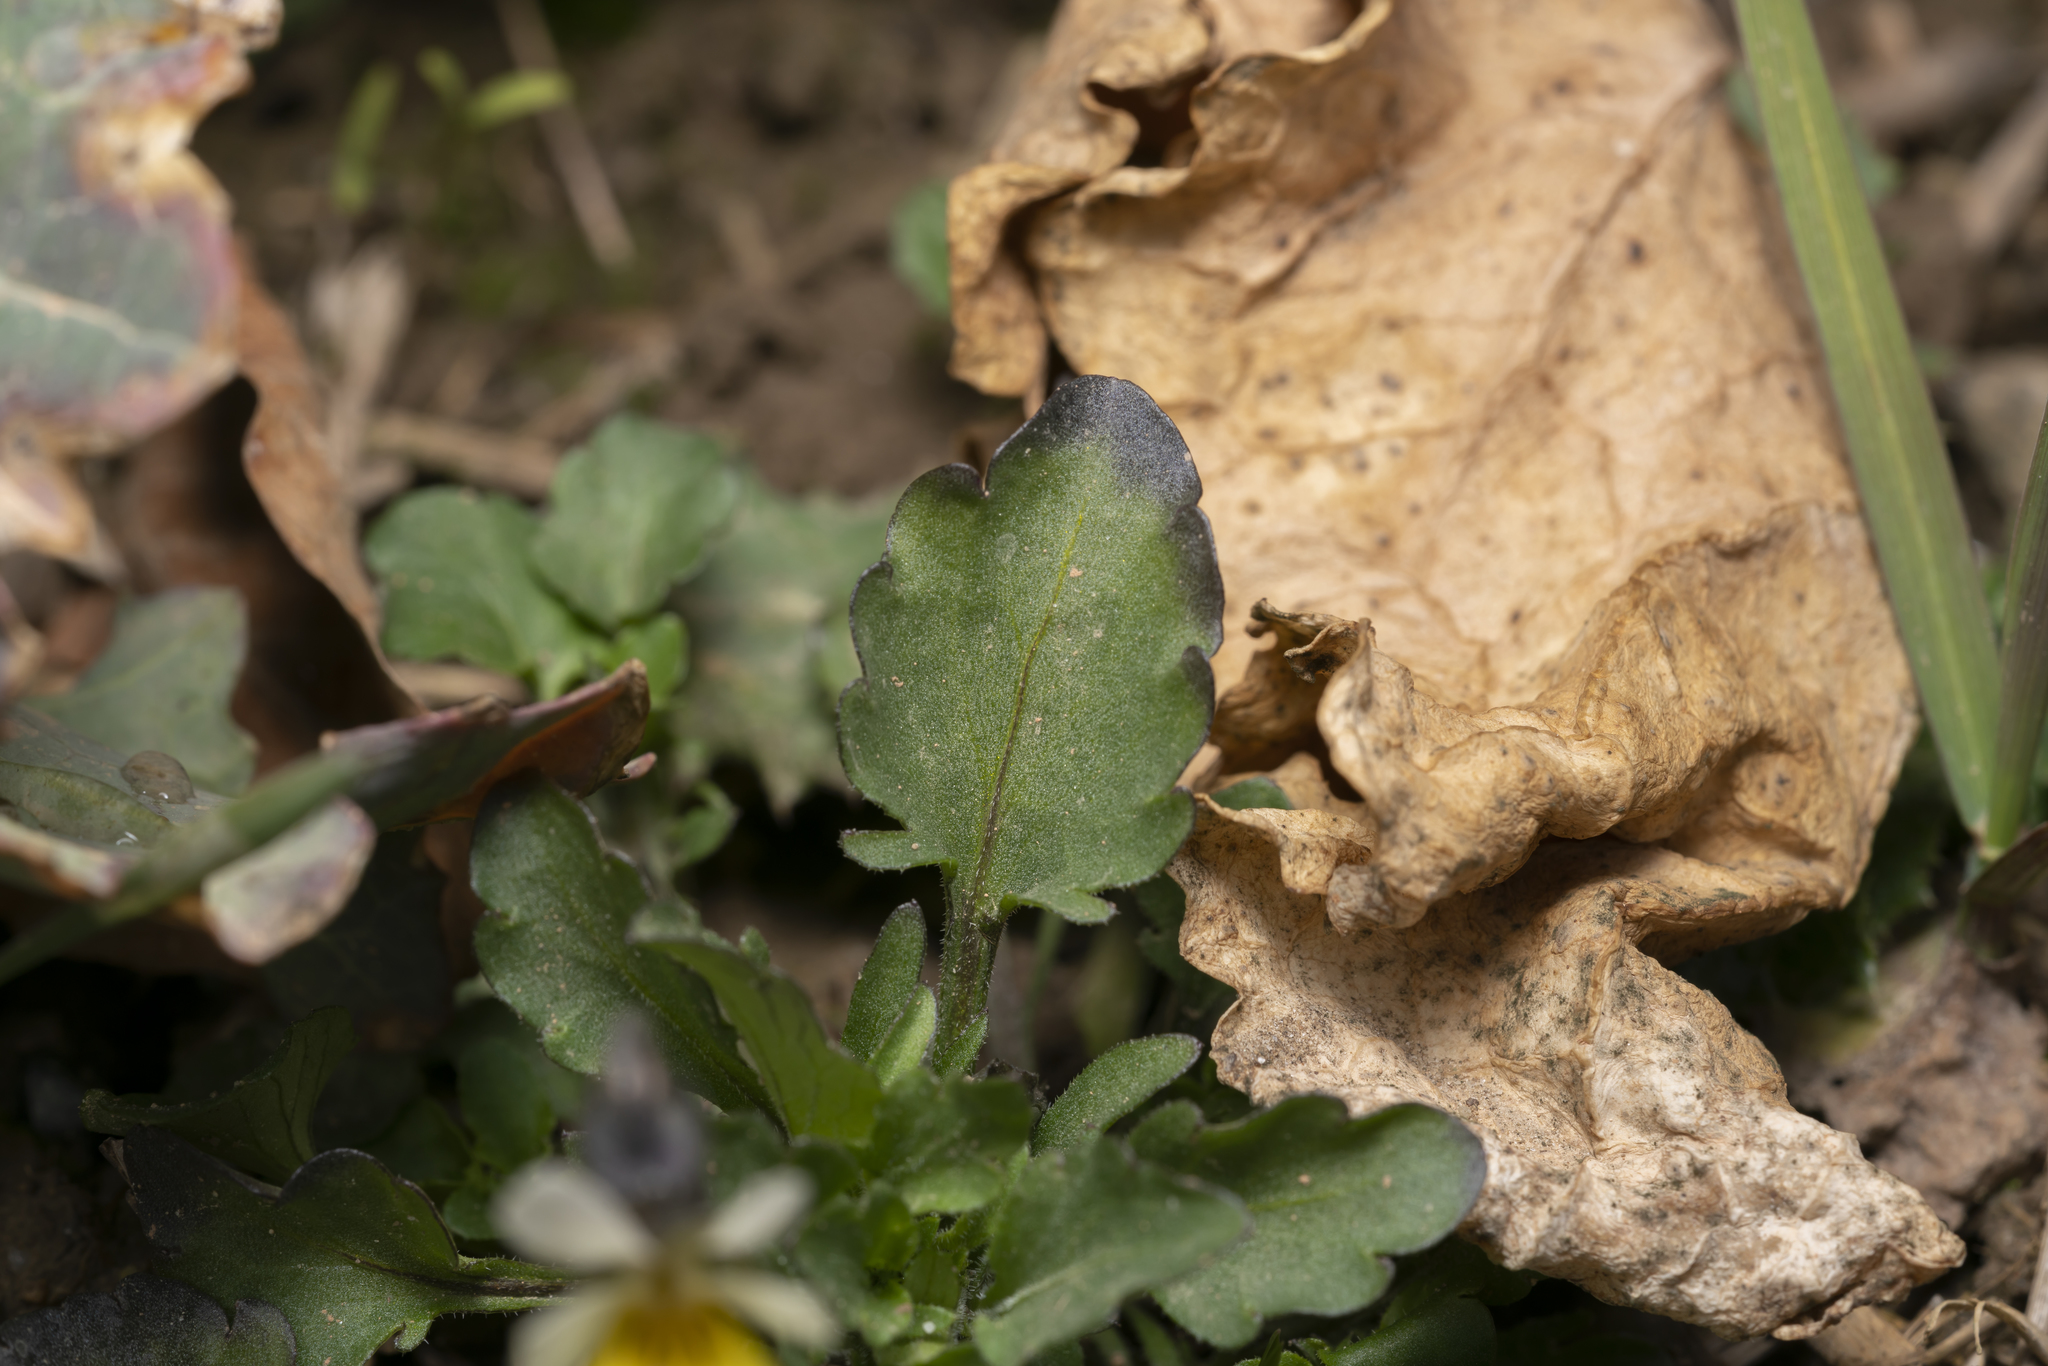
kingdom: Plantae
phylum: Tracheophyta
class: Magnoliopsida
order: Malpighiales
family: Violaceae
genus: Viola
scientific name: Viola arvensis
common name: Field pansy
